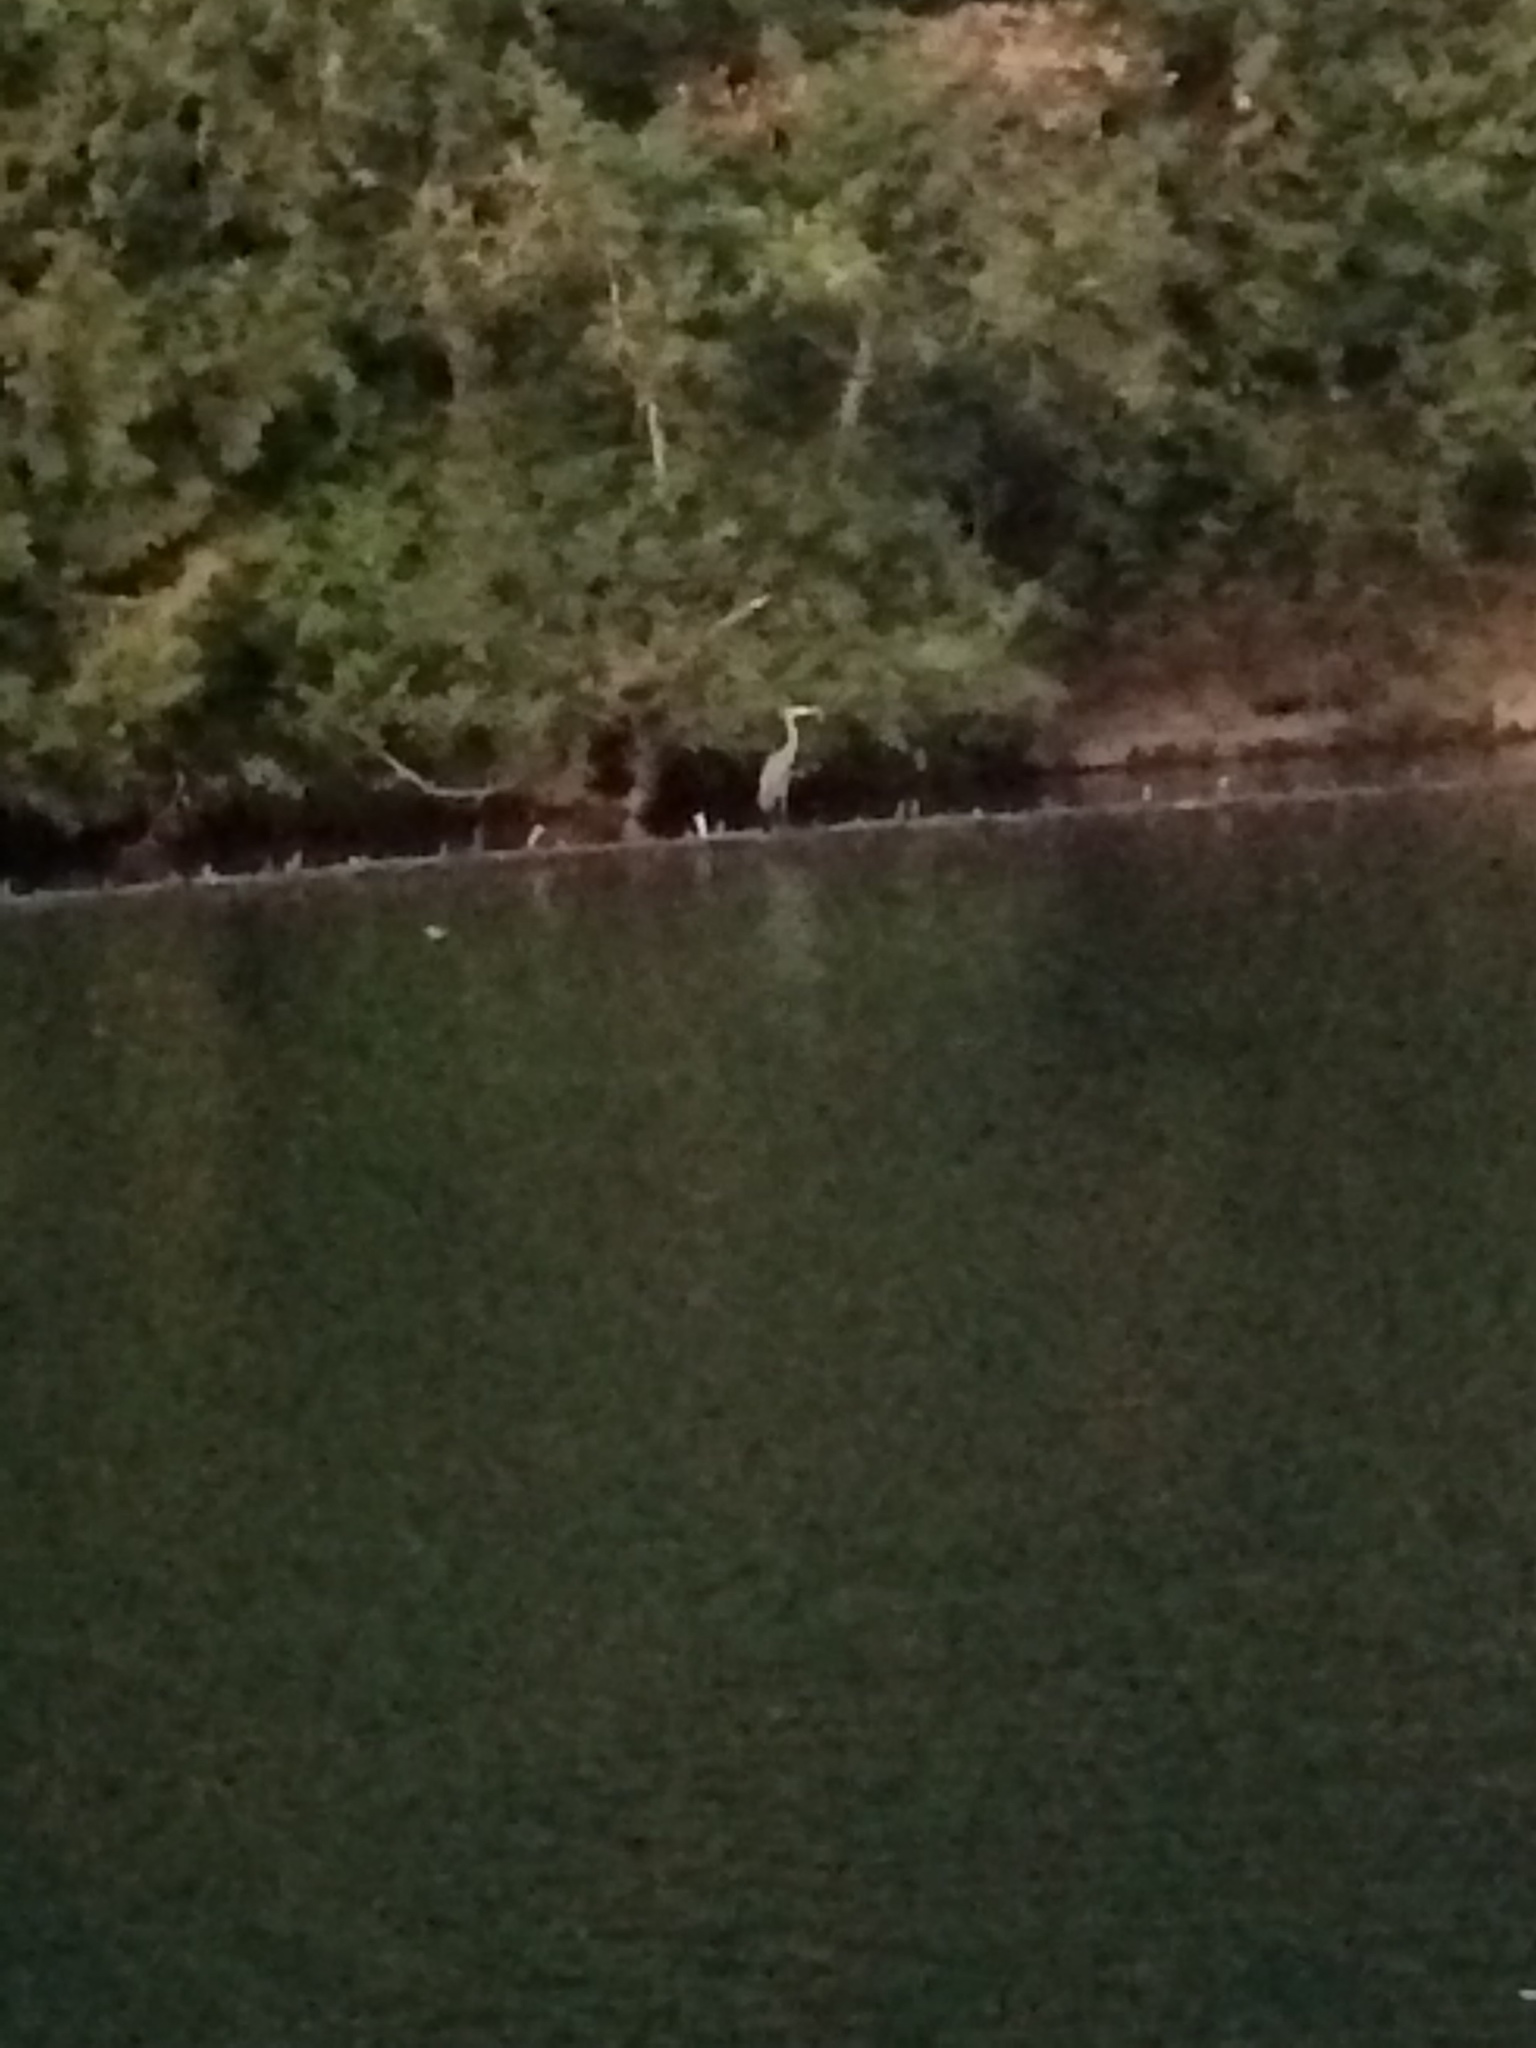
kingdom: Animalia
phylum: Chordata
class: Aves
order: Pelecaniformes
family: Ardeidae
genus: Ardea
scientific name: Ardea herodias
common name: Great blue heron
